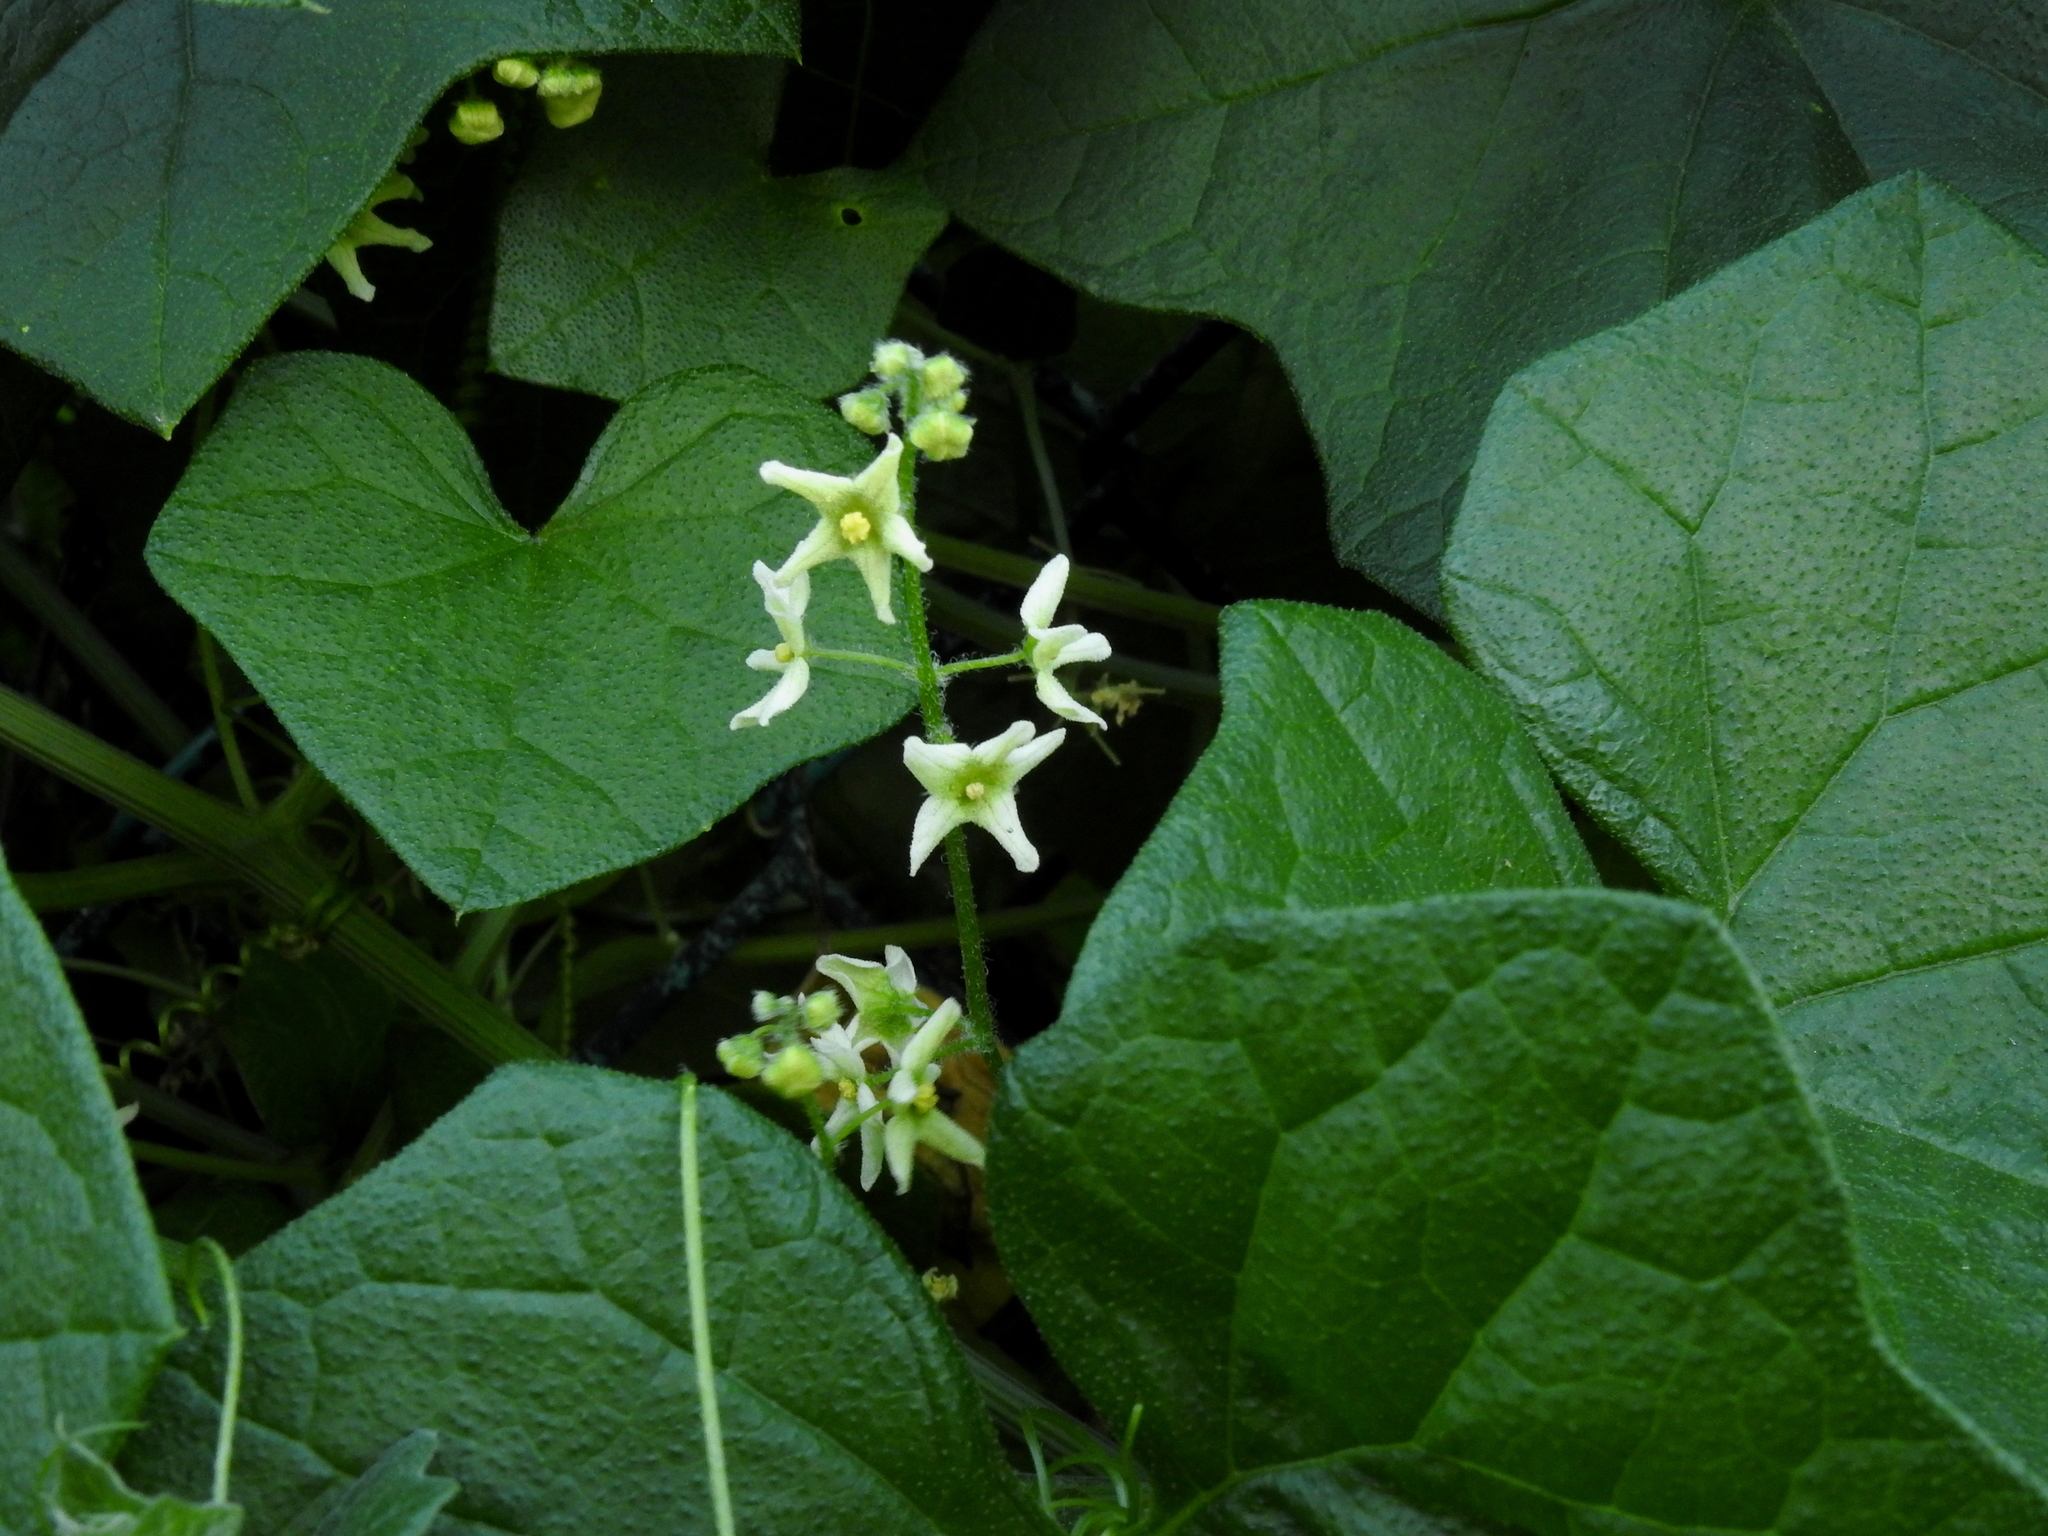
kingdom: Plantae
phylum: Tracheophyta
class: Magnoliopsida
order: Cucurbitales
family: Cucurbitaceae
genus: Marah
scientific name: Marah fabacea
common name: California manroot
